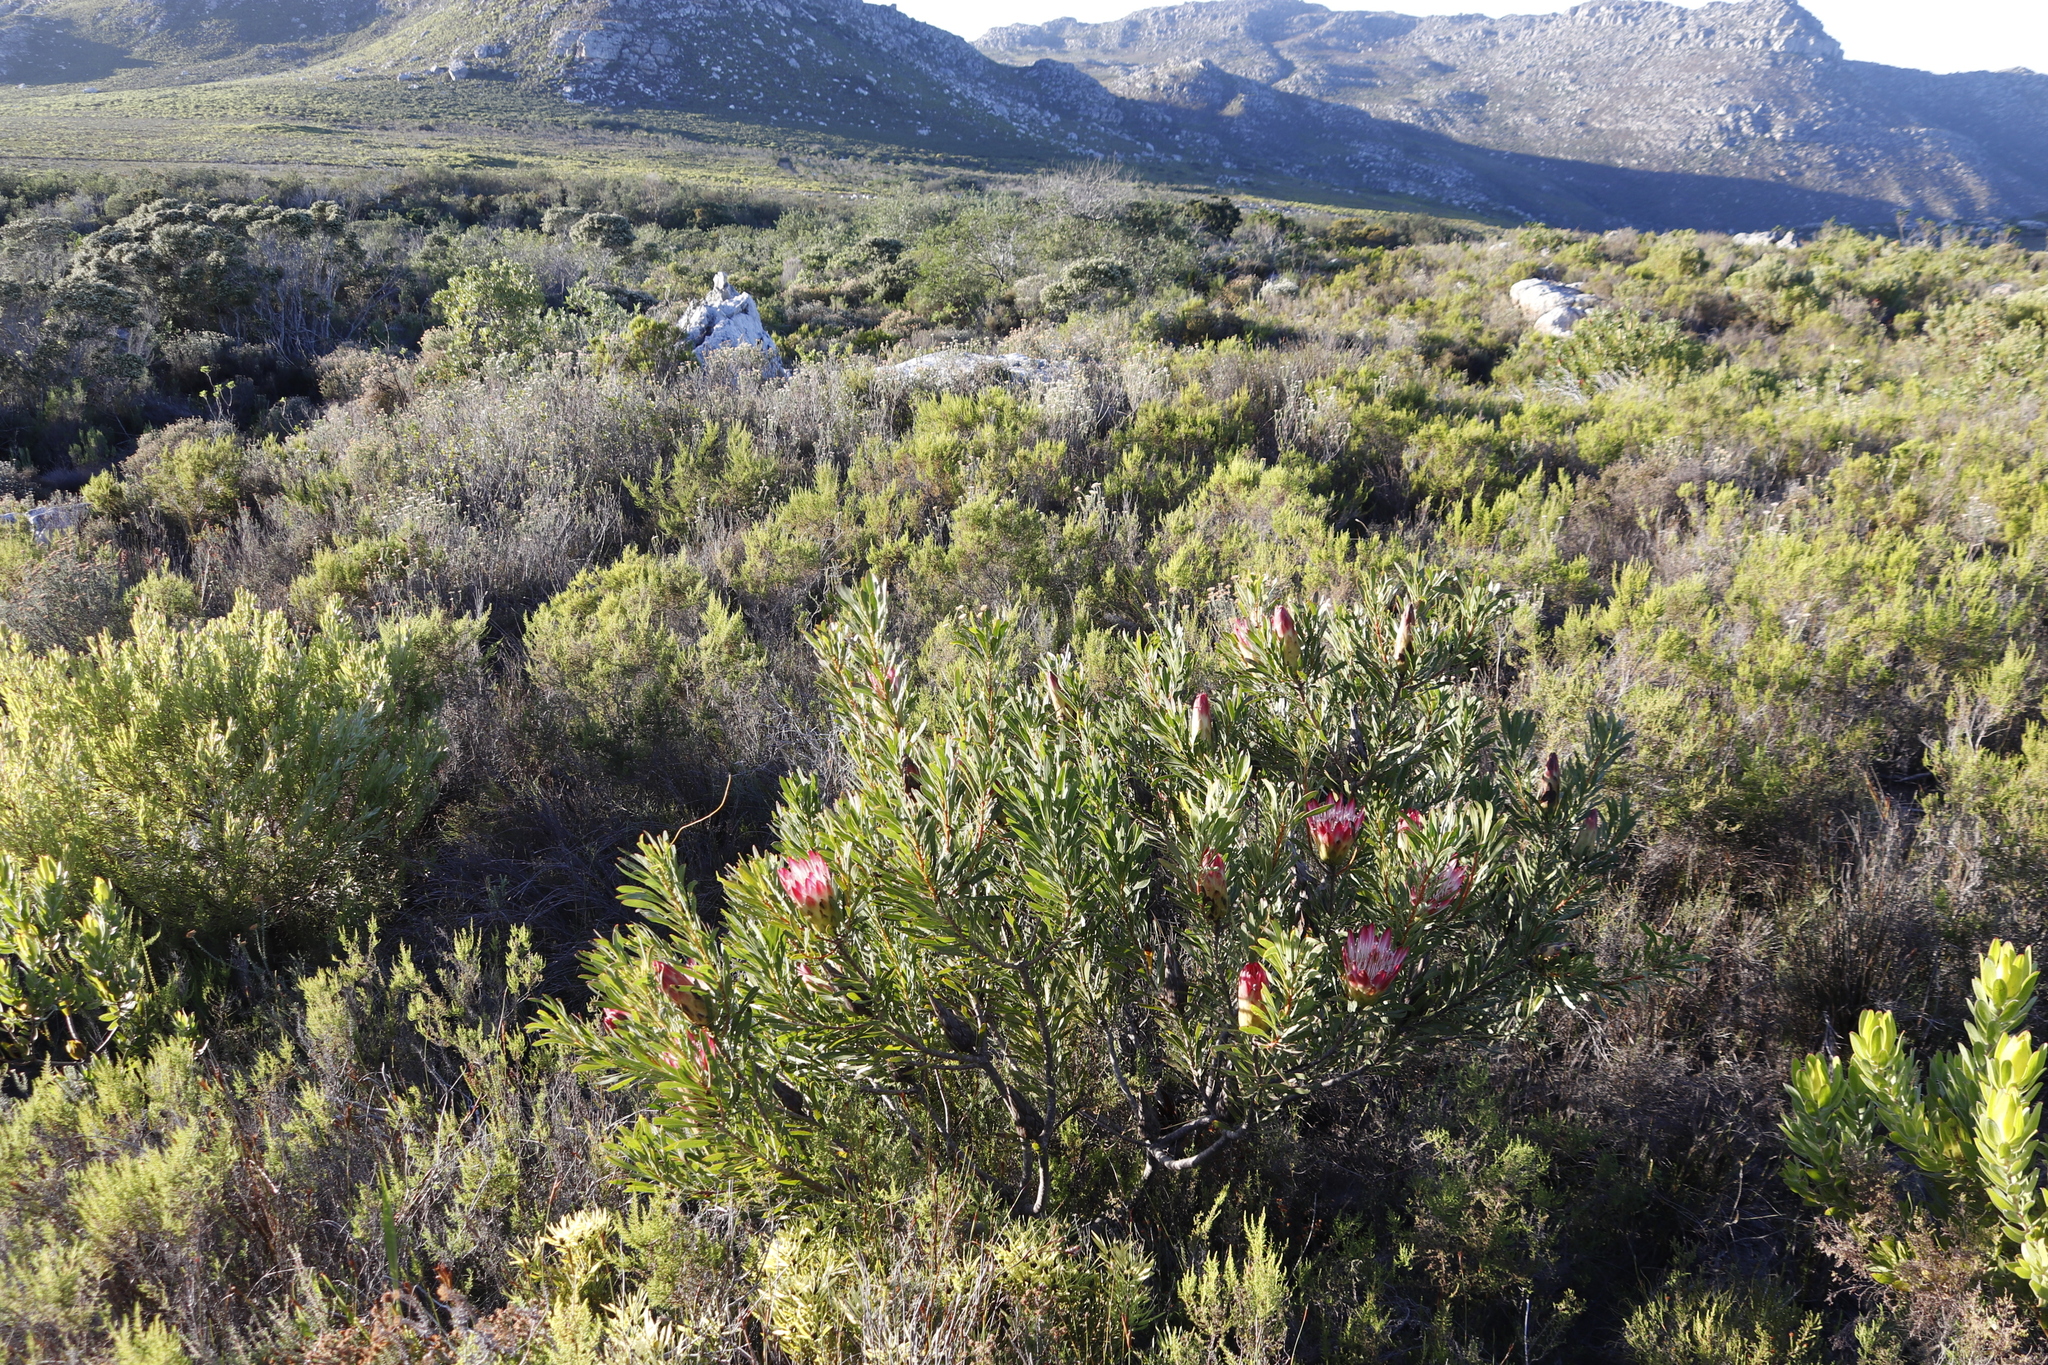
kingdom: Plantae
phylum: Tracheophyta
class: Magnoliopsida
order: Proteales
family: Proteaceae
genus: Protea
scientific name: Protea repens
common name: Sugarbush
